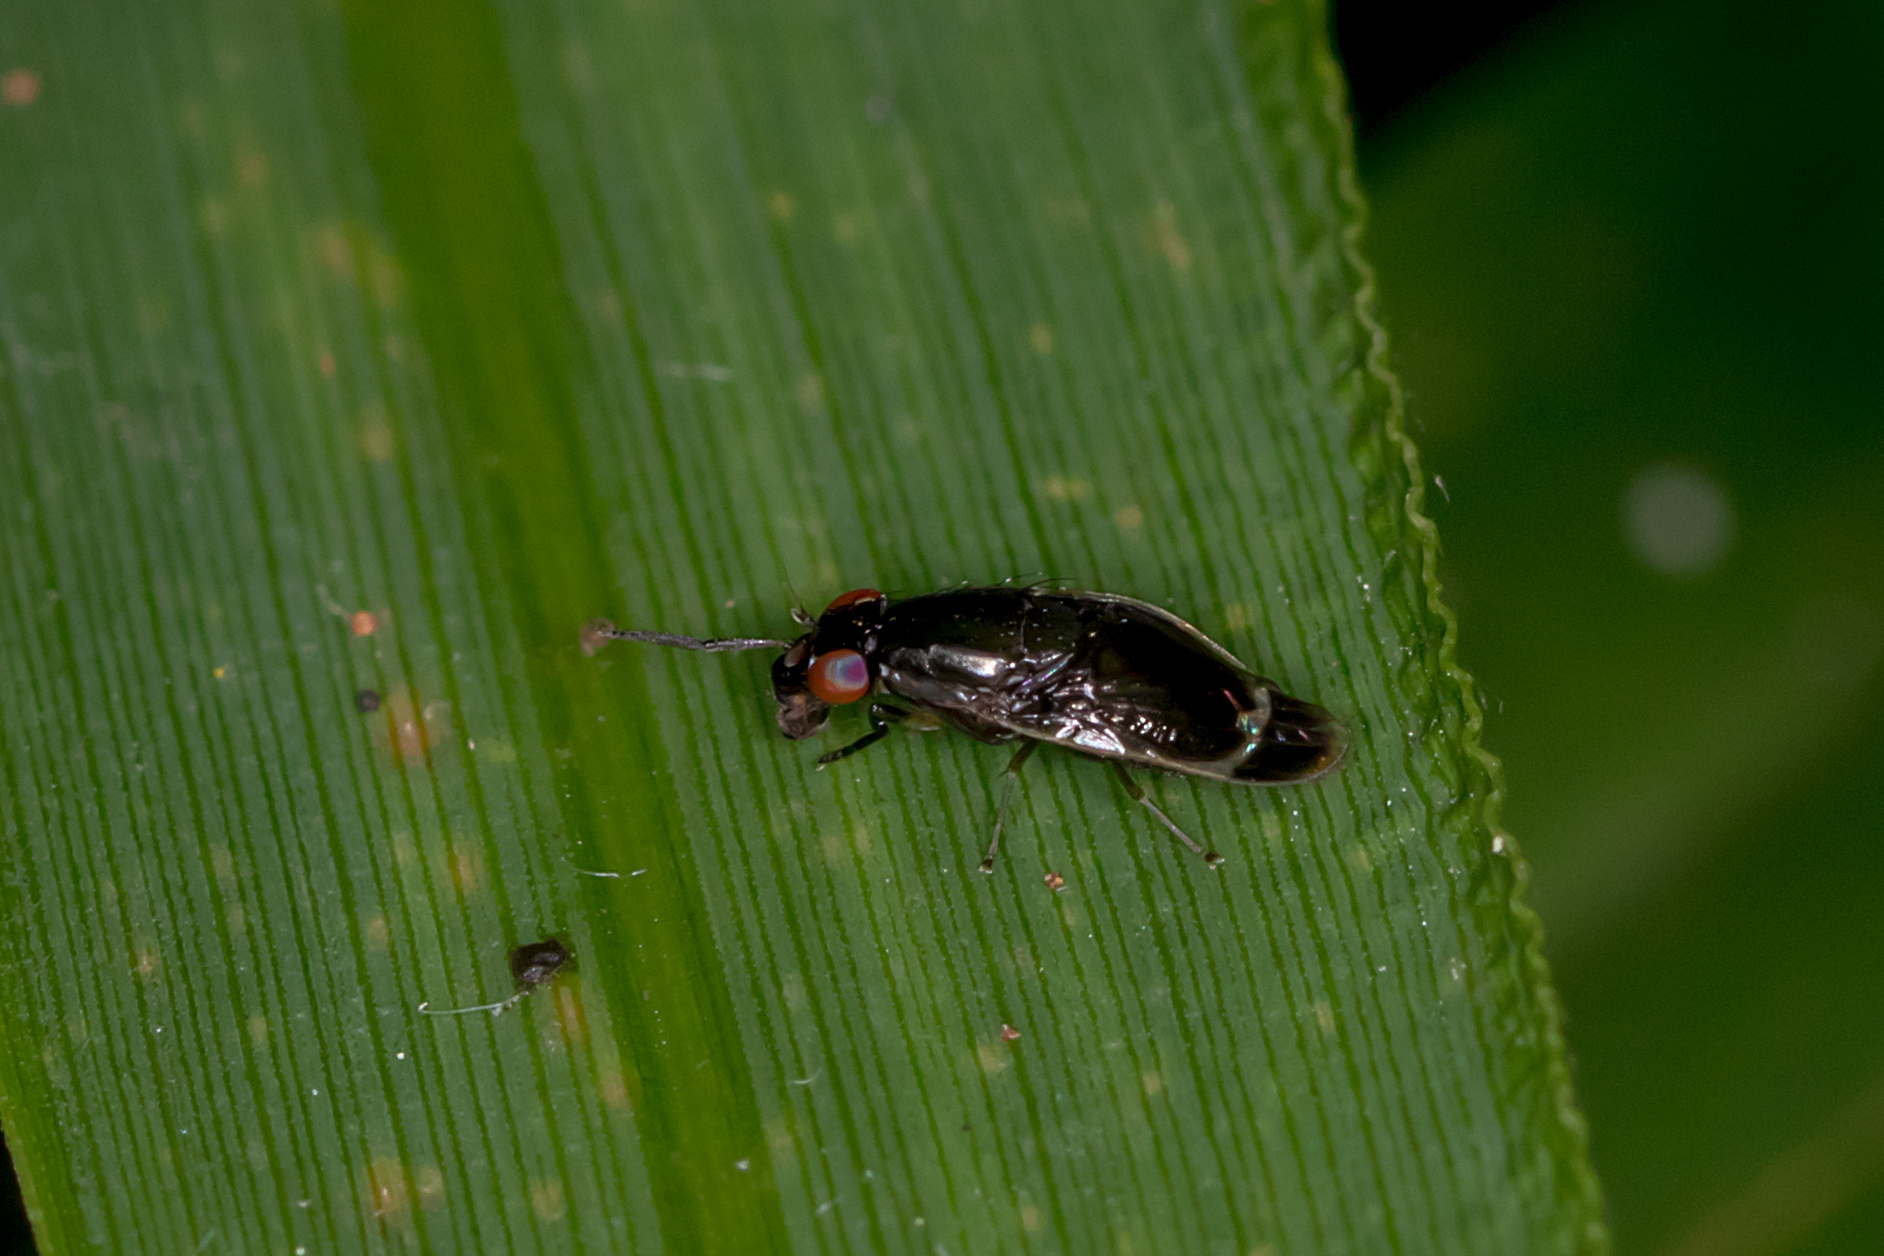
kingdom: Animalia
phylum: Arthropoda
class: Insecta
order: Diptera
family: Lauxaniidae
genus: Depressa
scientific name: Depressa albicosta
